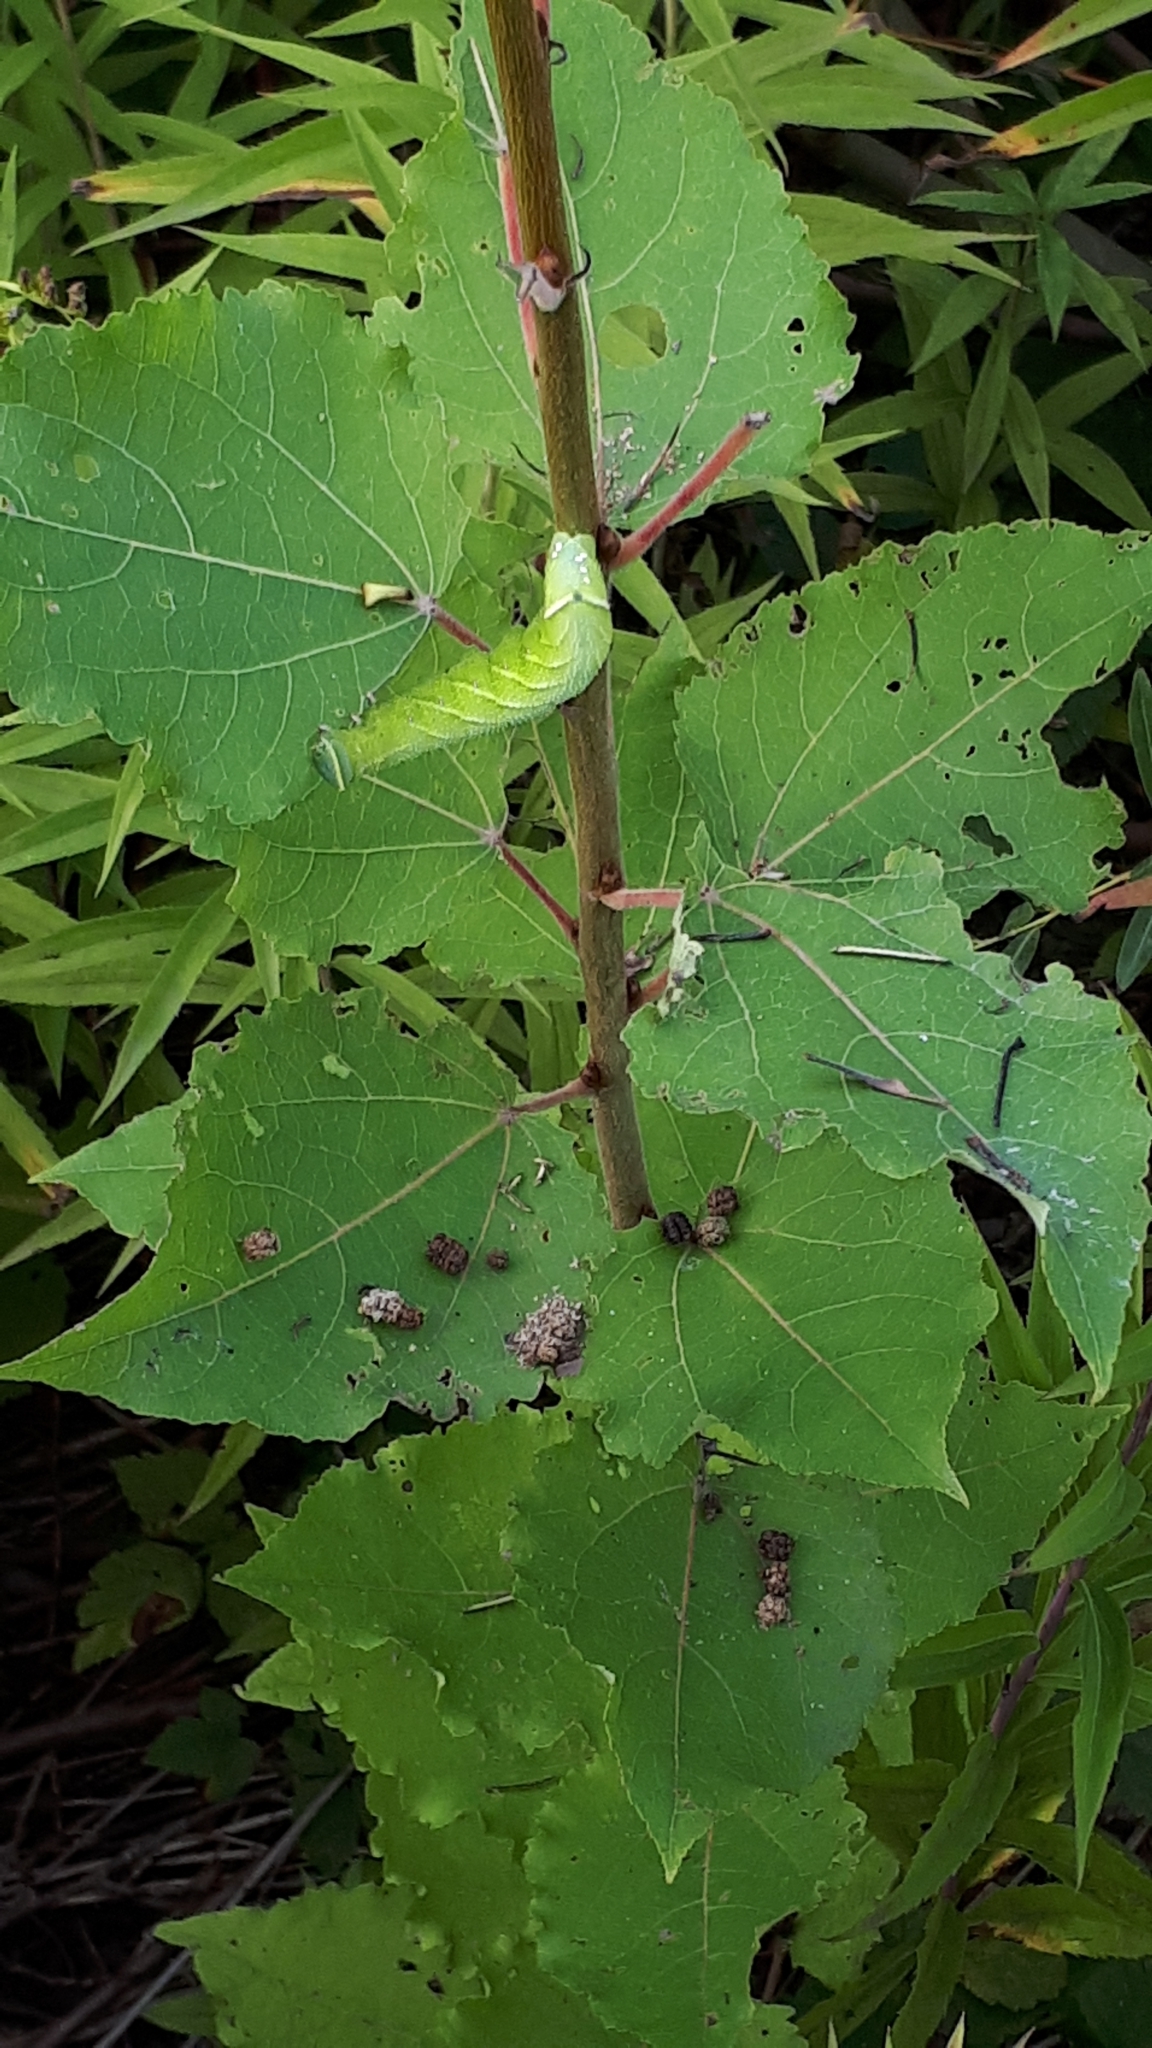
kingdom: Animalia
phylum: Arthropoda
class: Insecta
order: Lepidoptera
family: Sphingidae
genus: Smerinthus
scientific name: Smerinthus ocellata
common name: Eyed hawk-moth
